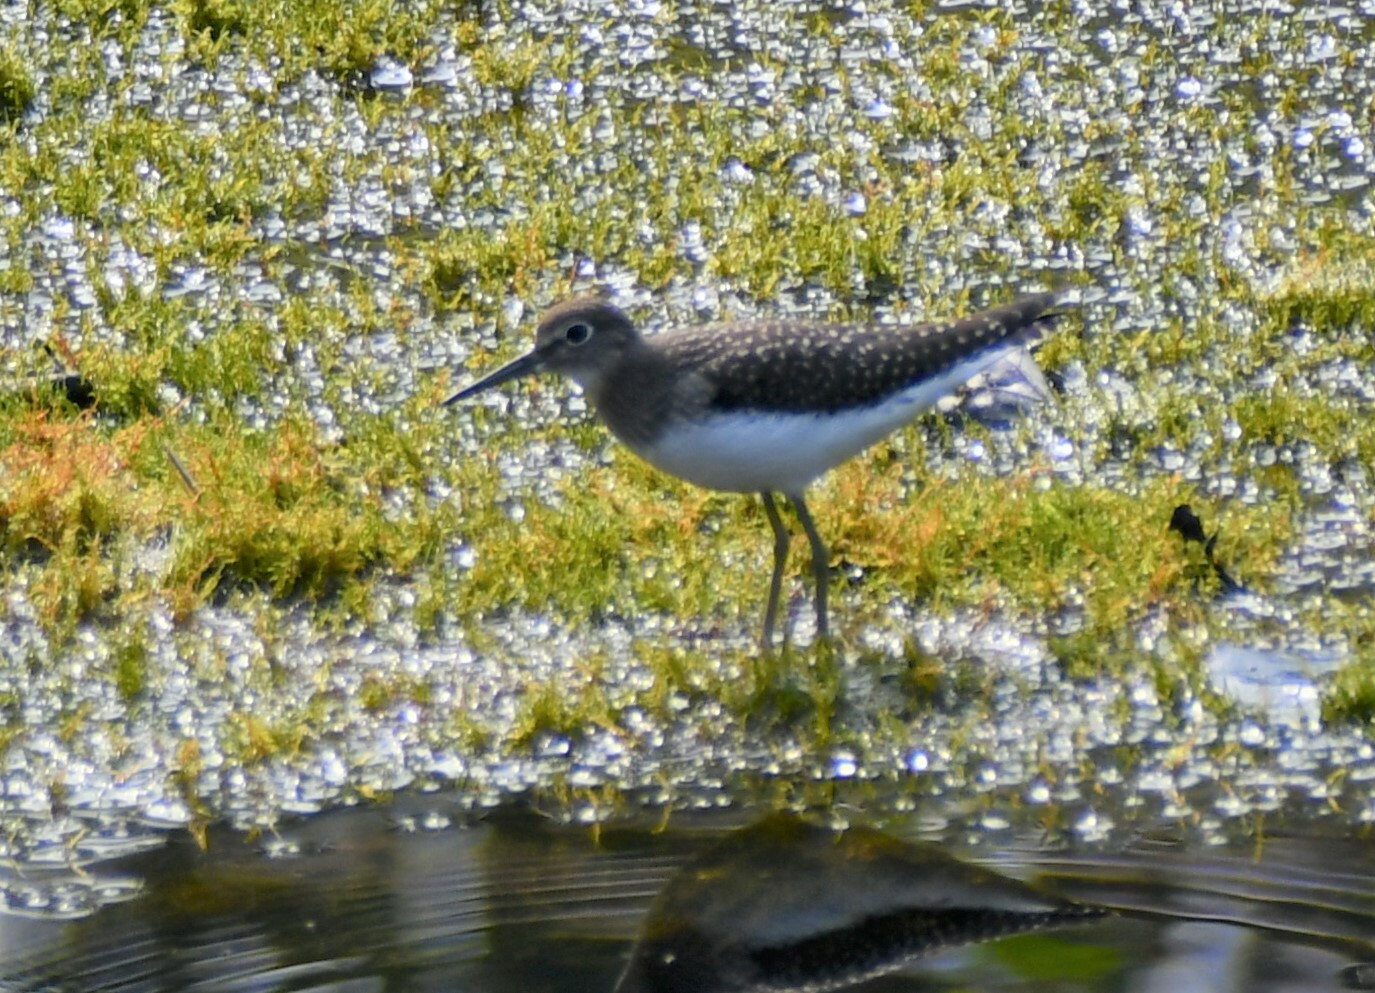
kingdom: Animalia
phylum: Chordata
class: Aves
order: Charadriiformes
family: Scolopacidae
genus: Tringa
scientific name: Tringa solitaria
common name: Solitary sandpiper
